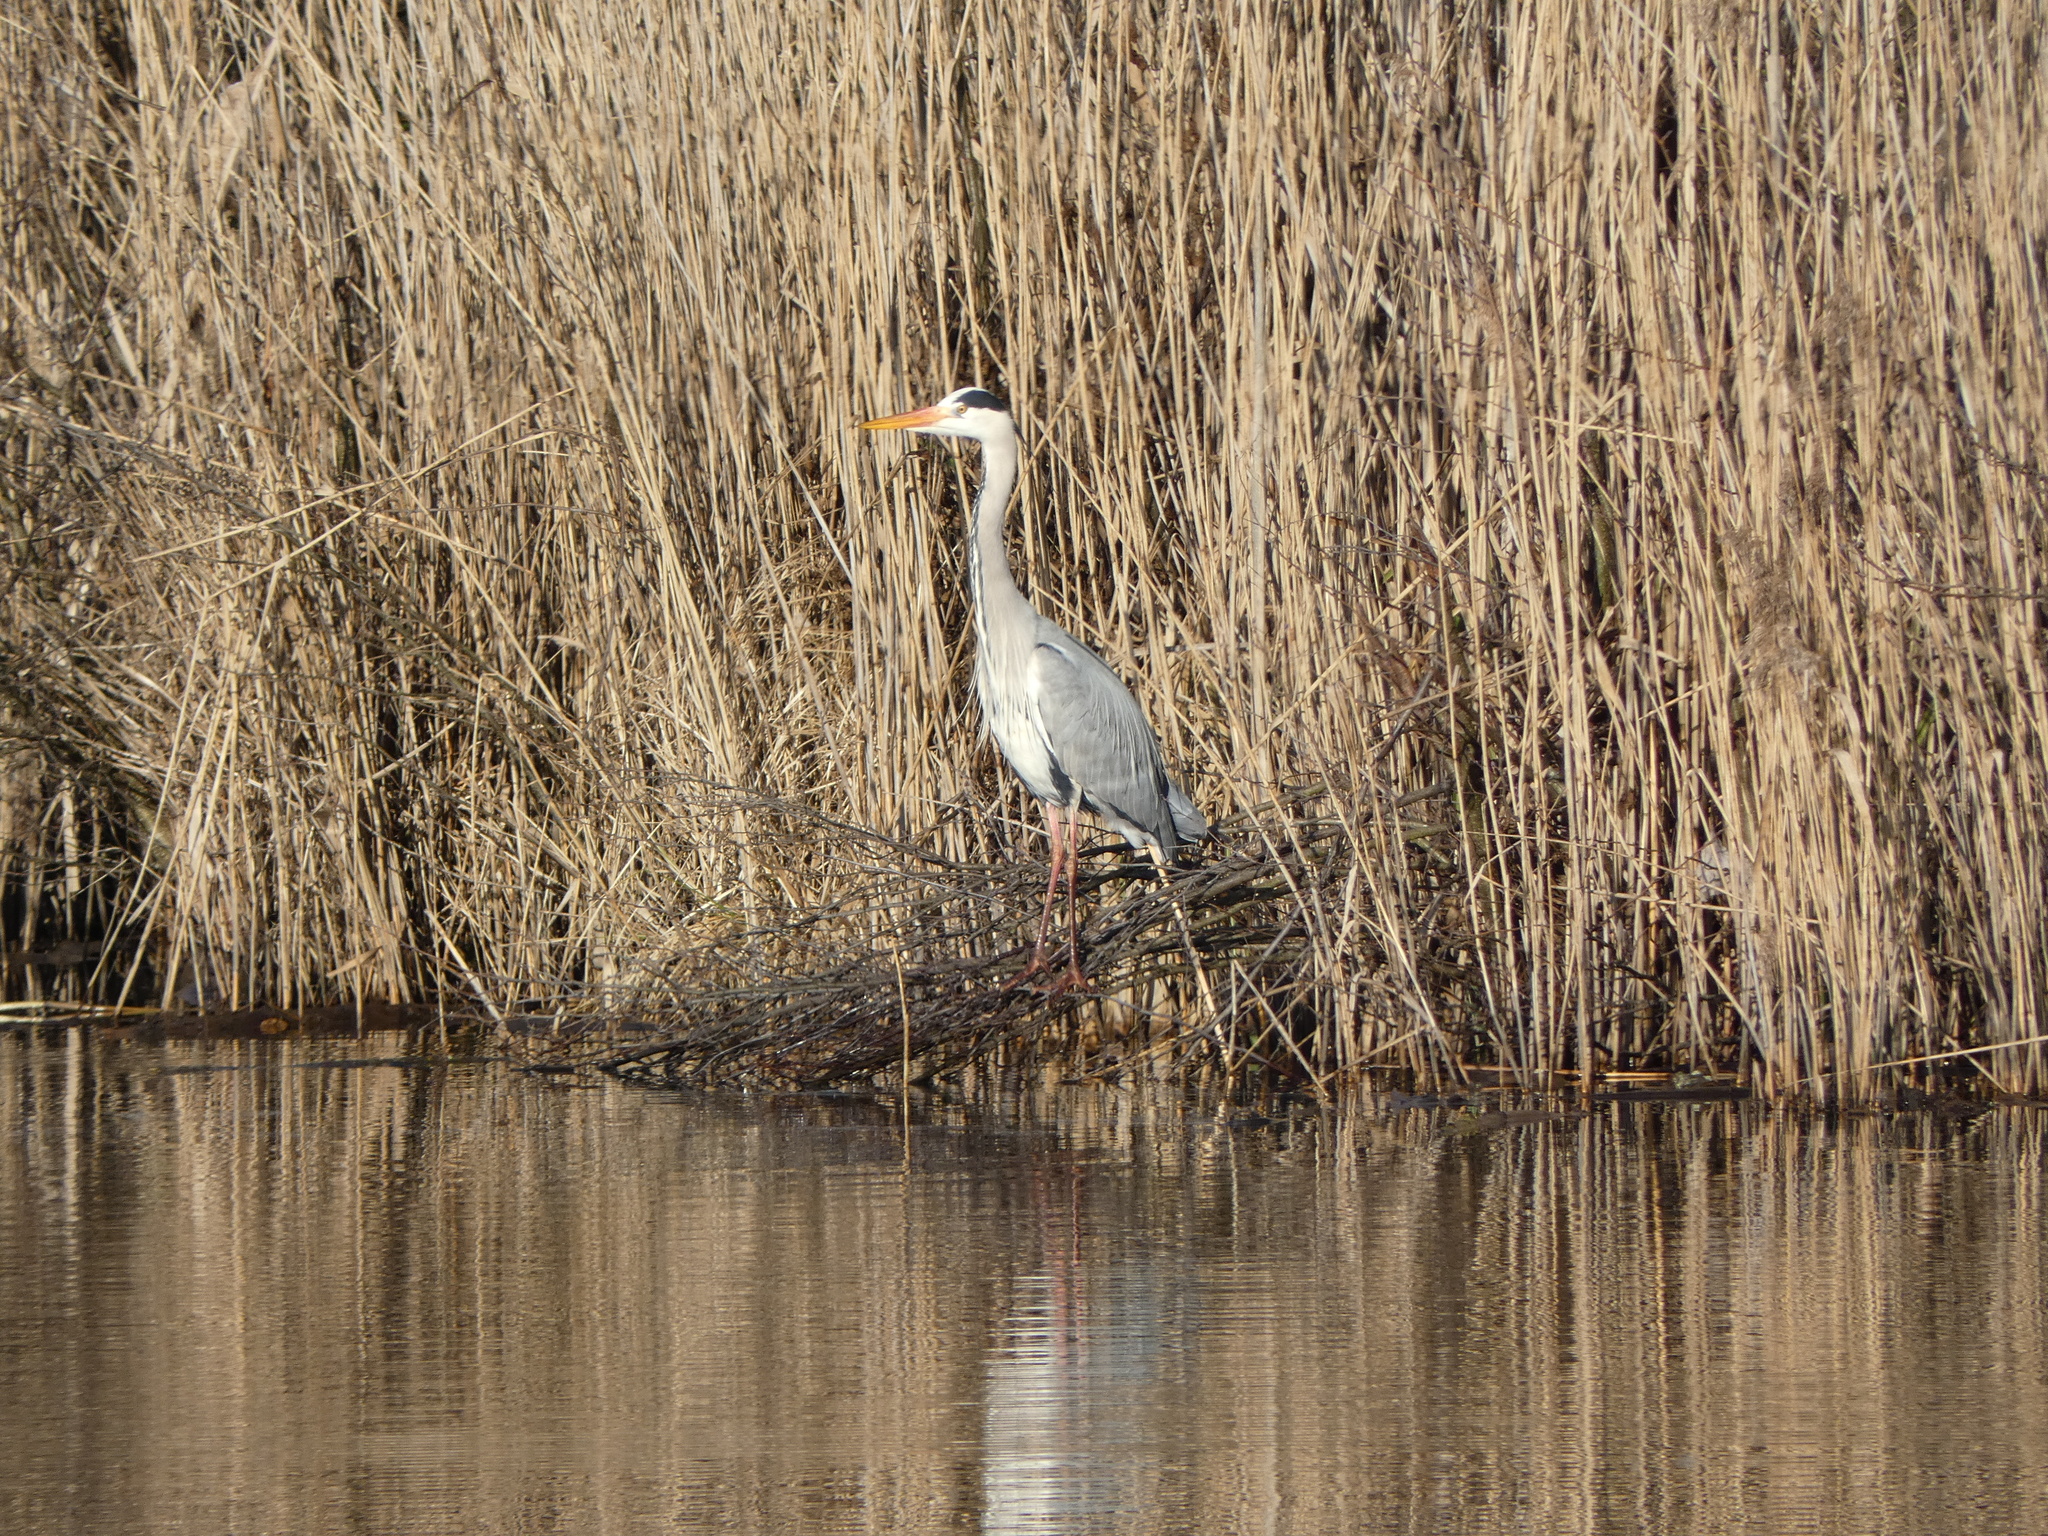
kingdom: Animalia
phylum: Chordata
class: Aves
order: Pelecaniformes
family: Ardeidae
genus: Ardea
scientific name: Ardea cinerea
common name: Grey heron
